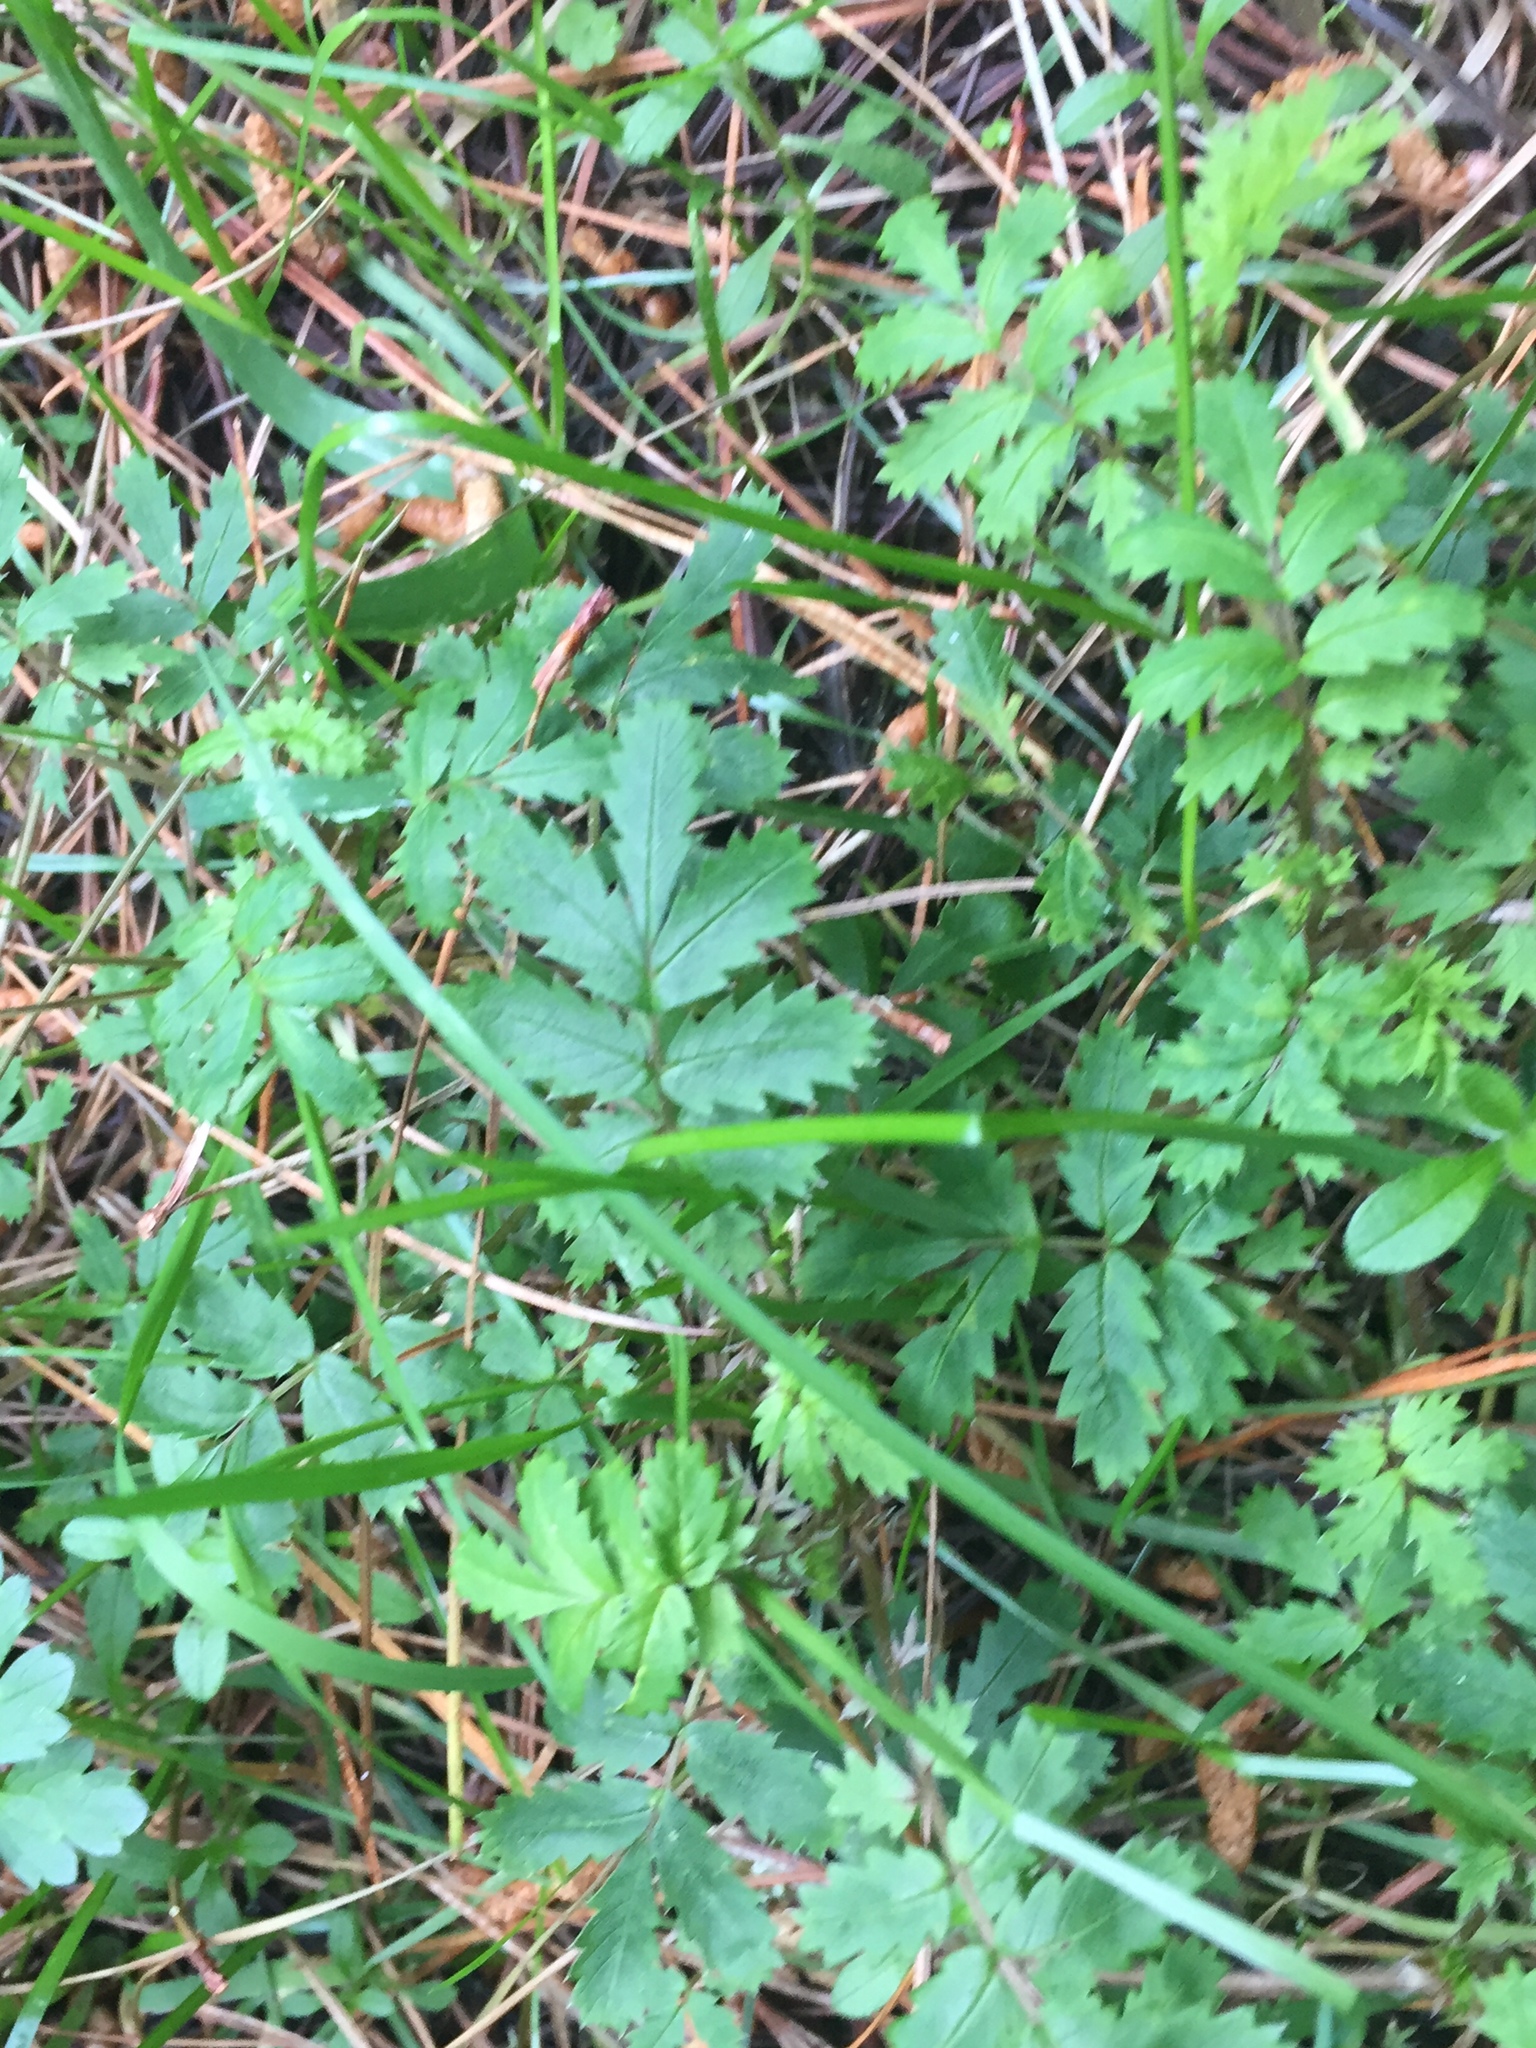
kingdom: Plantae
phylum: Tracheophyta
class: Magnoliopsida
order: Rosales
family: Rosaceae
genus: Acaena
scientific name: Acaena anserinifolia
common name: Bronze pirri-pirri-bur
